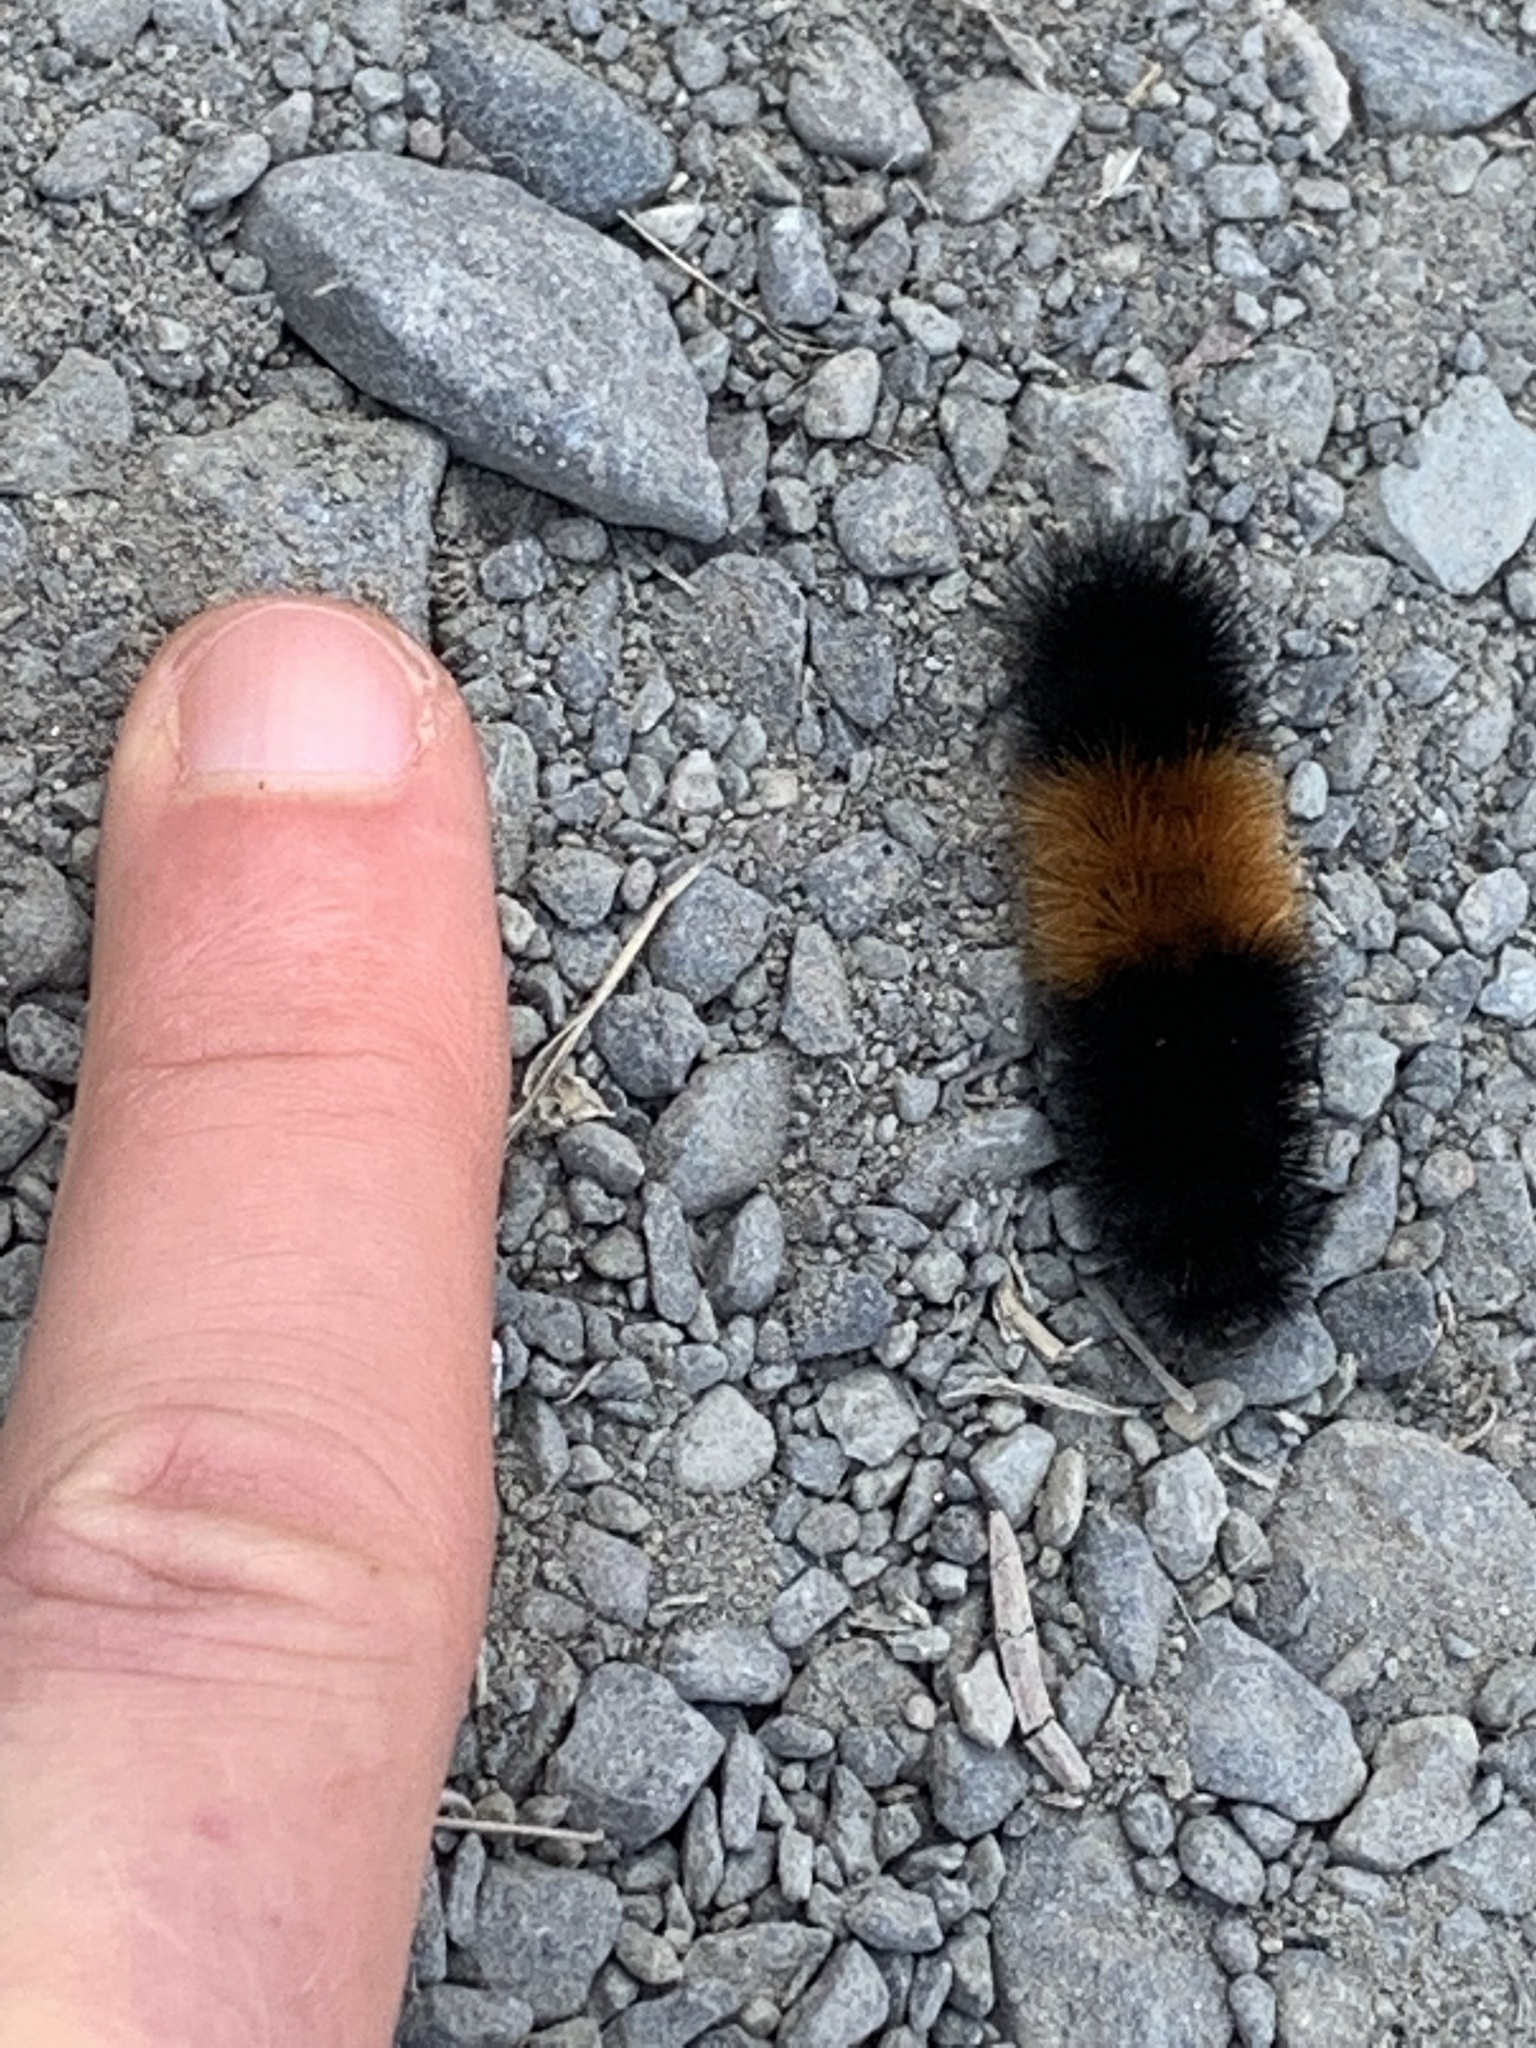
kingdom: Animalia
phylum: Arthropoda
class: Insecta
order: Lepidoptera
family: Erebidae
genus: Pyrrharctia
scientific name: Pyrrharctia isabella
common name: Isabella tiger moth
